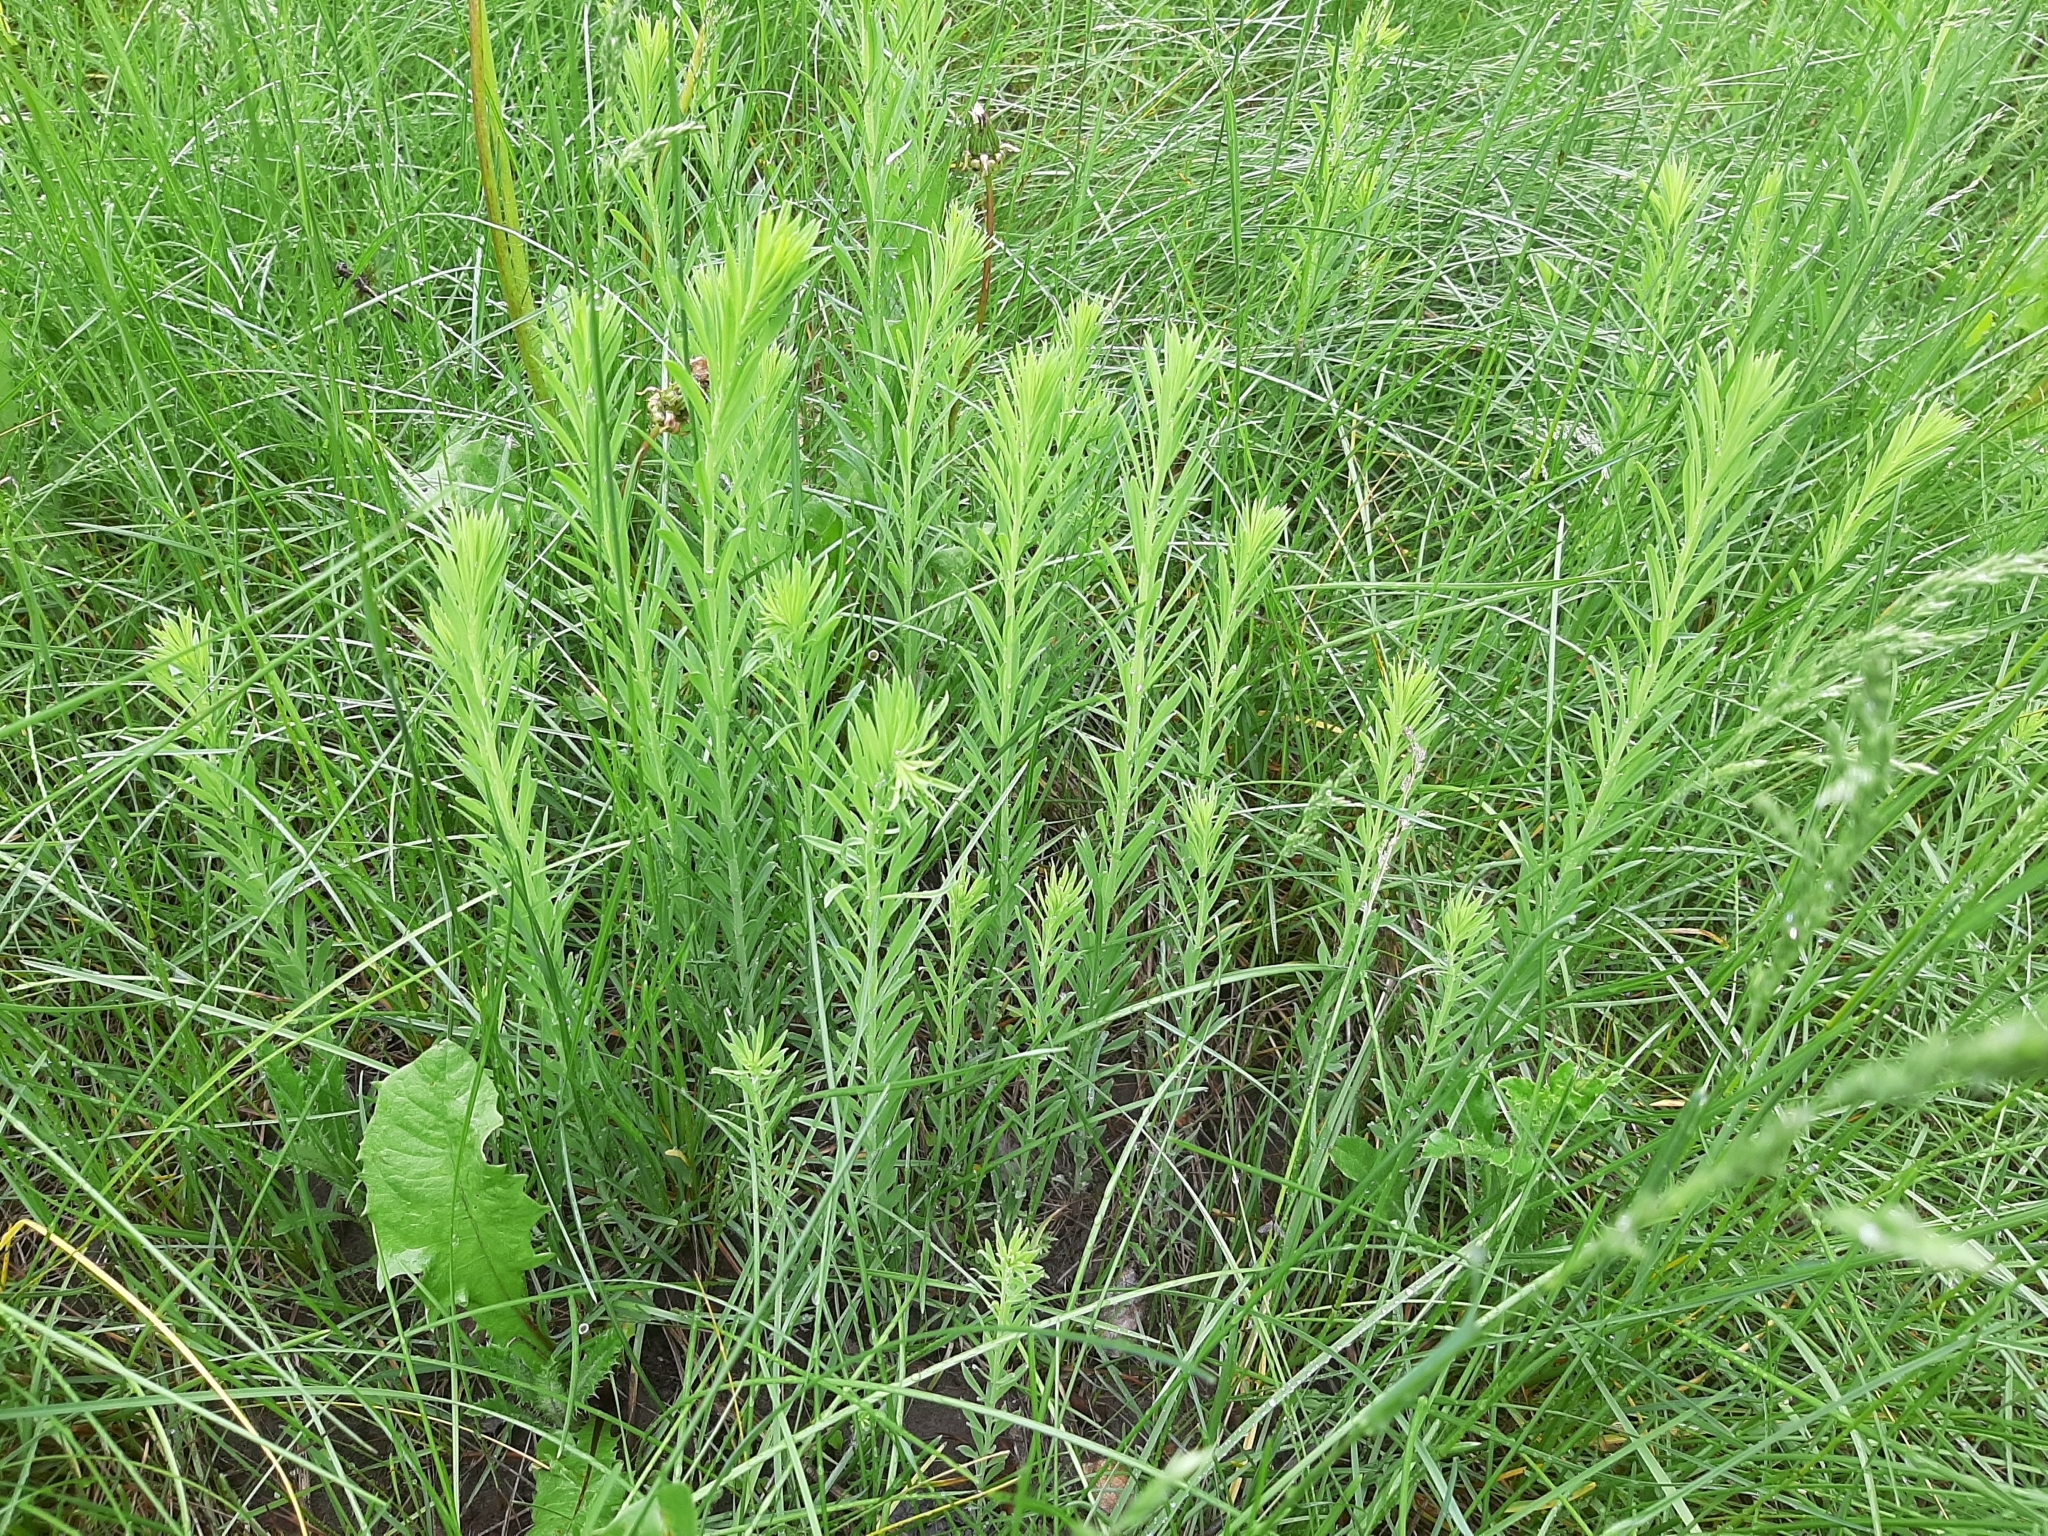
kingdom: Plantae
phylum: Tracheophyta
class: Magnoliopsida
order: Lamiales
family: Plantaginaceae
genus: Linaria
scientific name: Linaria vulgaris
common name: Butter and eggs
